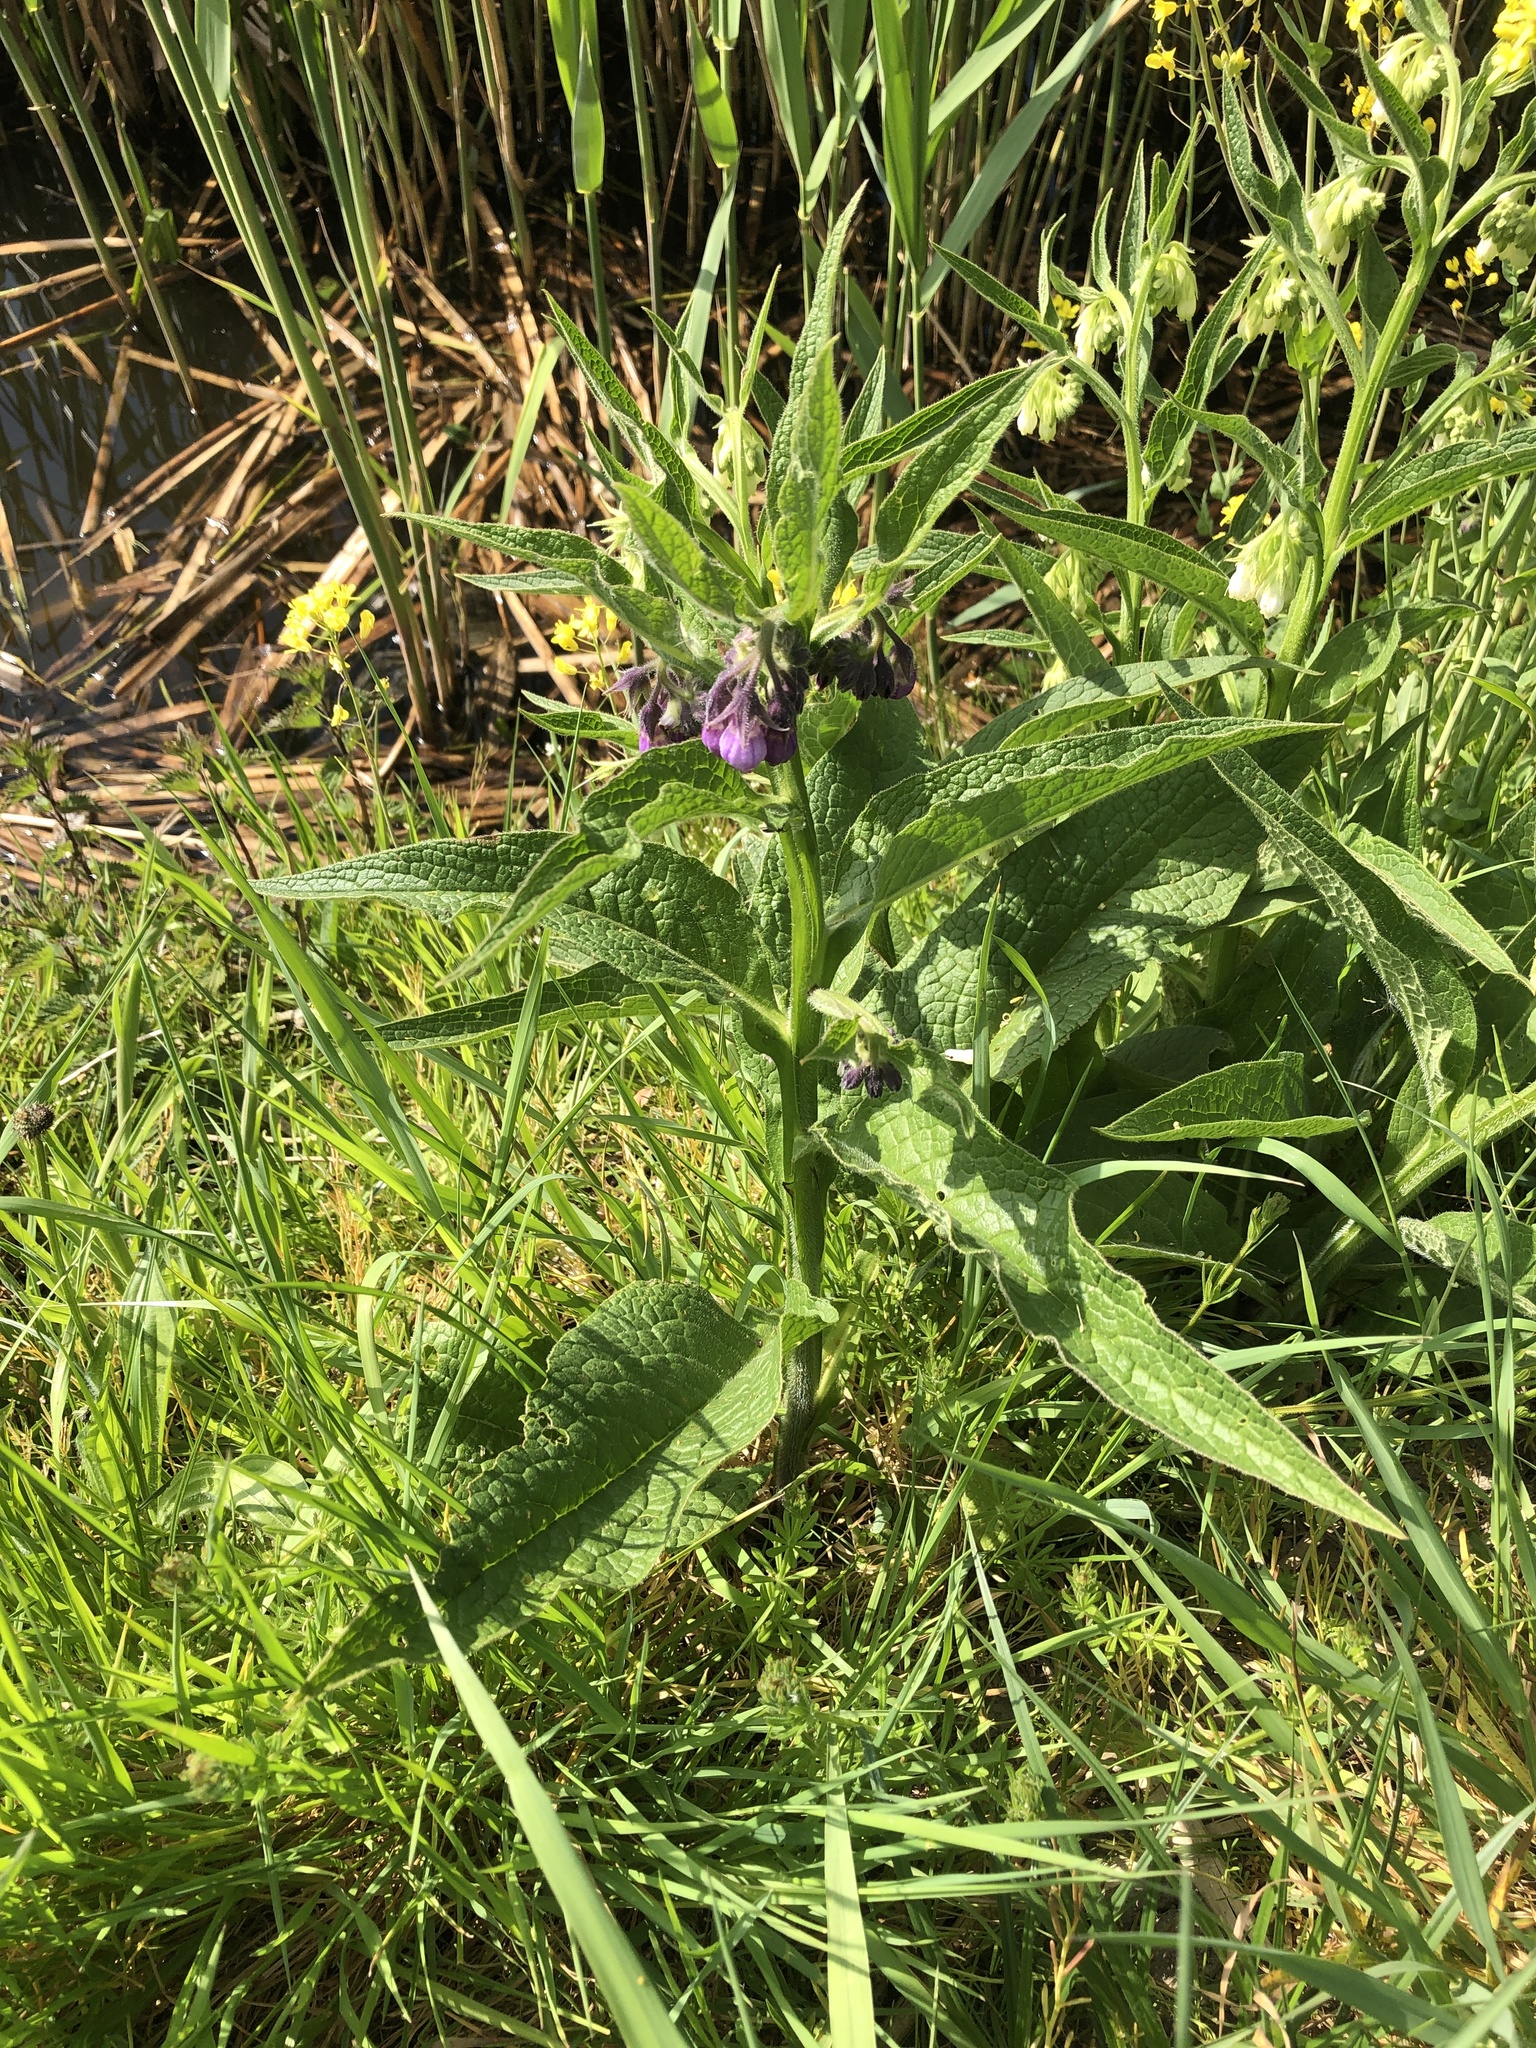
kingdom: Plantae
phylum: Tracheophyta
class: Magnoliopsida
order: Boraginales
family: Boraginaceae
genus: Symphytum
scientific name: Symphytum officinale
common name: Common comfrey
